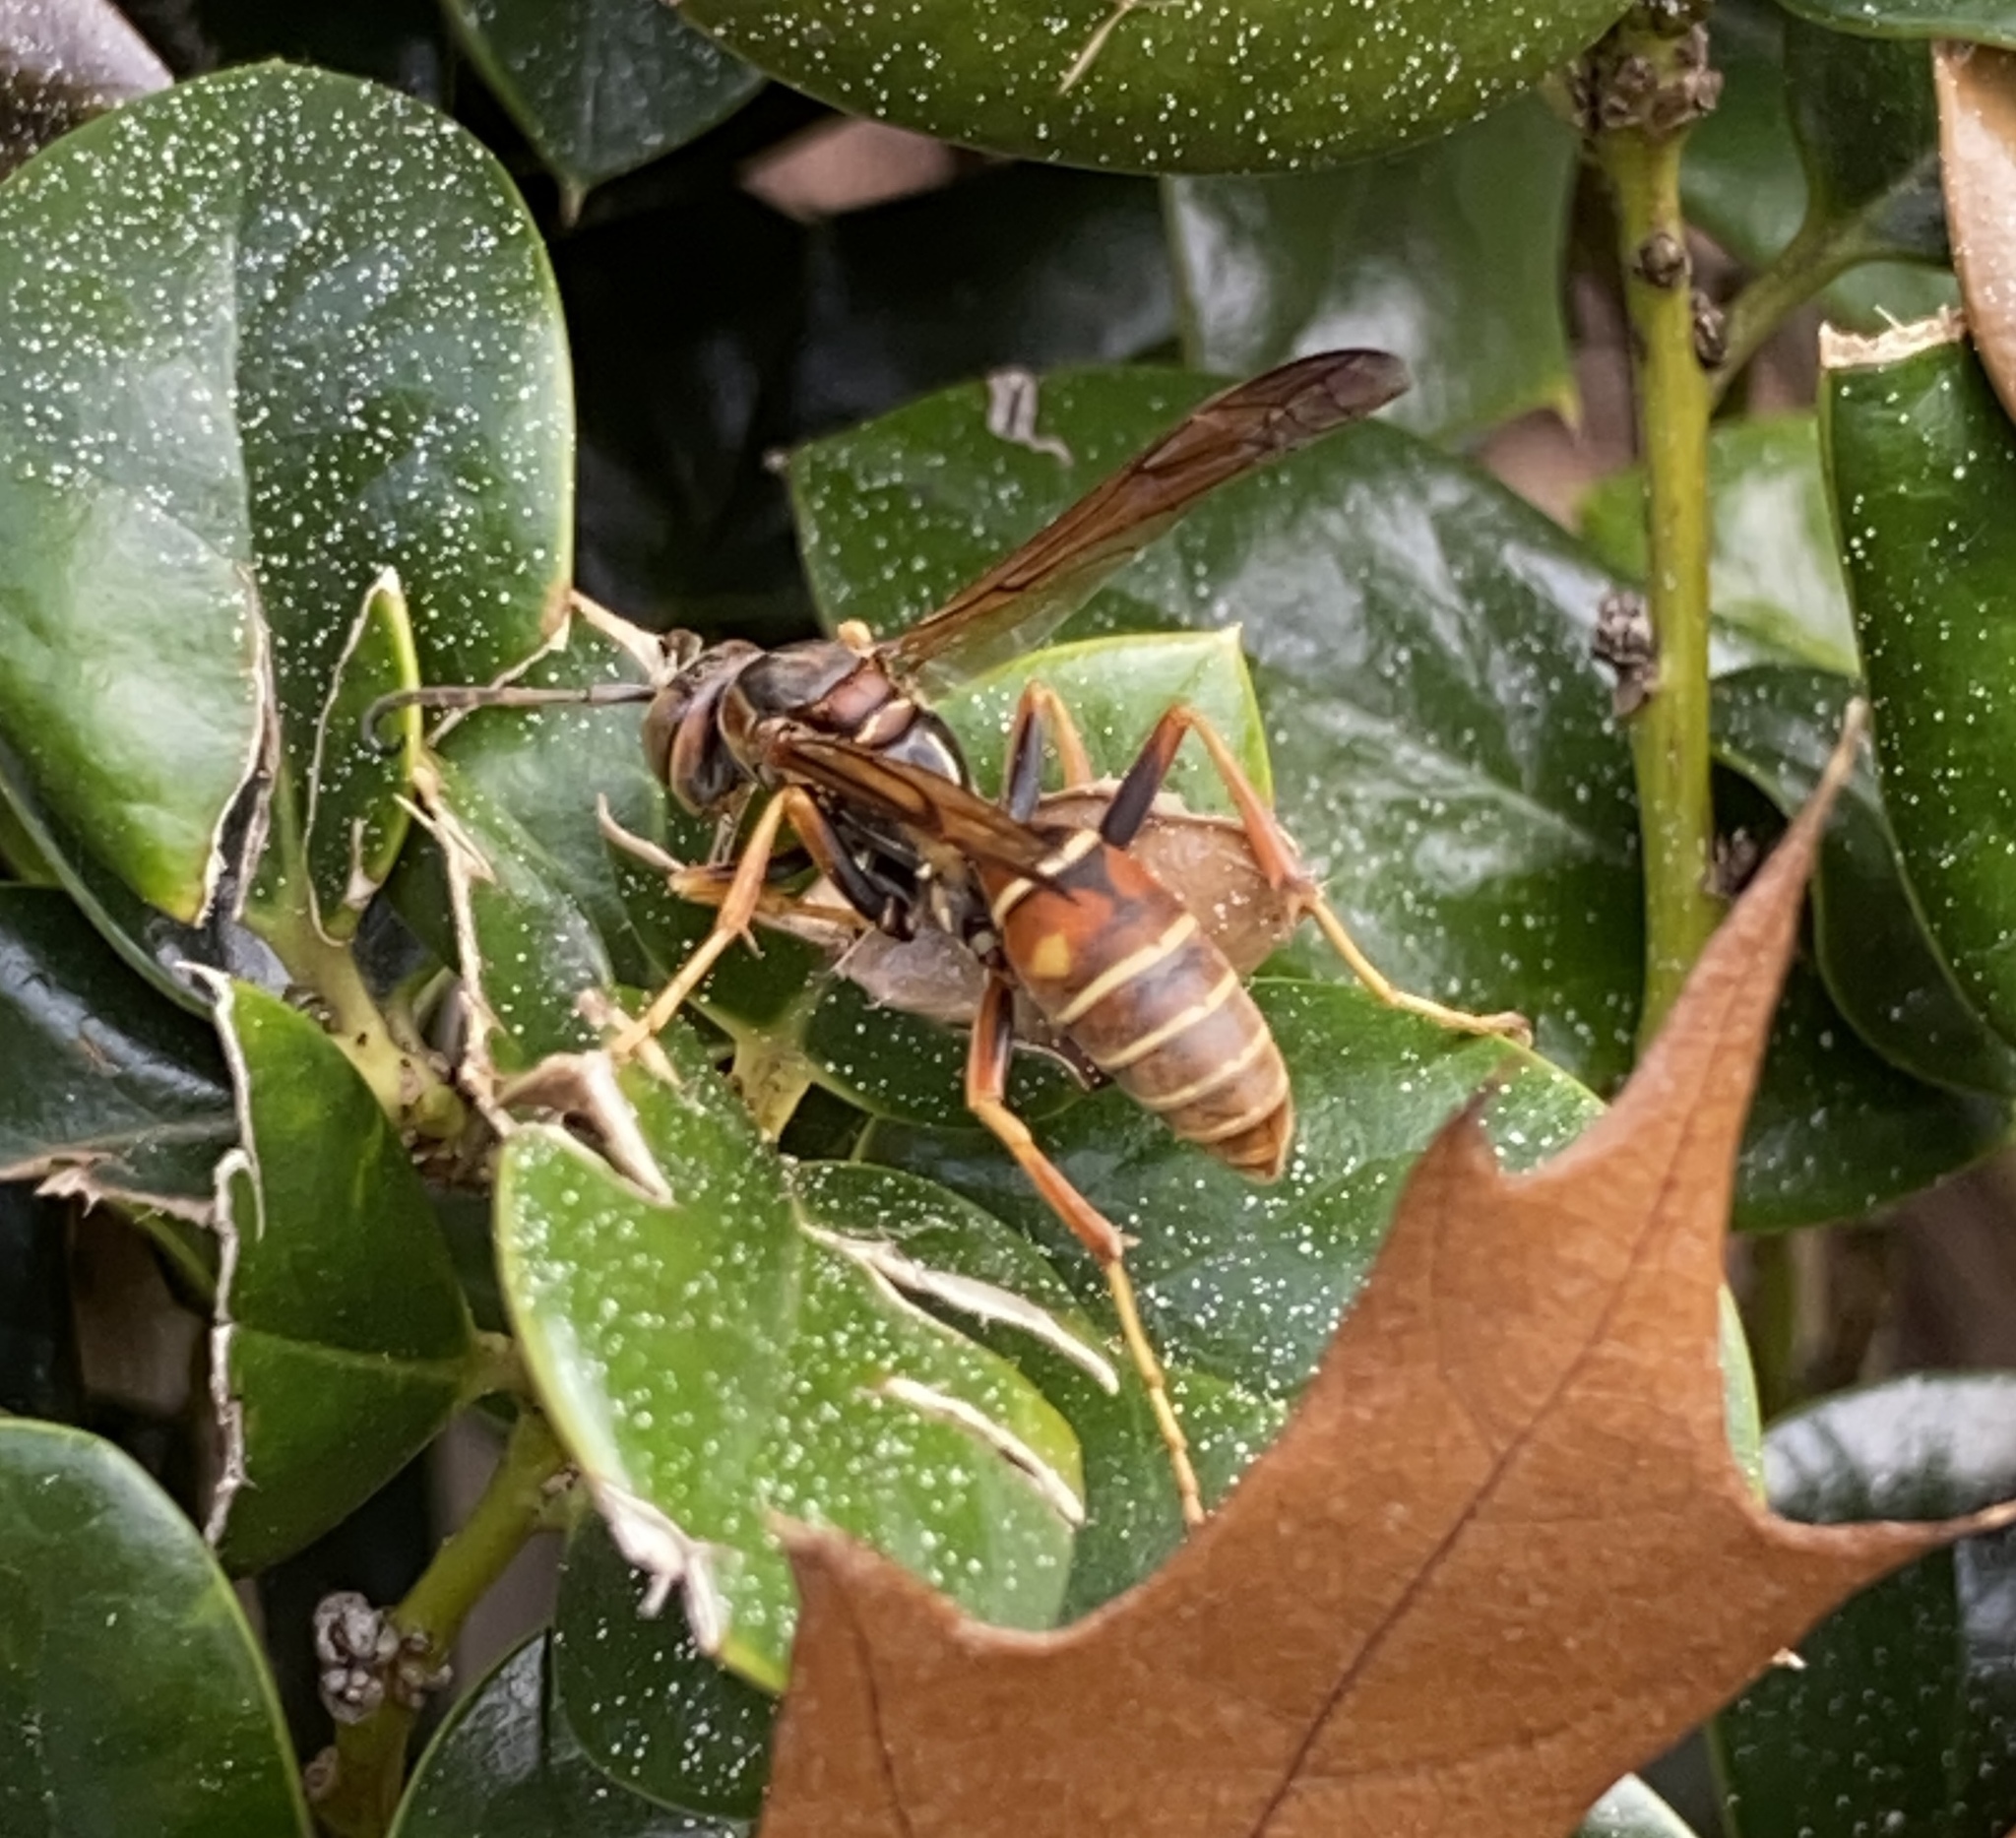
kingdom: Animalia
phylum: Arthropoda
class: Insecta
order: Hymenoptera
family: Eumenidae
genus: Polistes
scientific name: Polistes fuscatus
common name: Dark paper wasp
